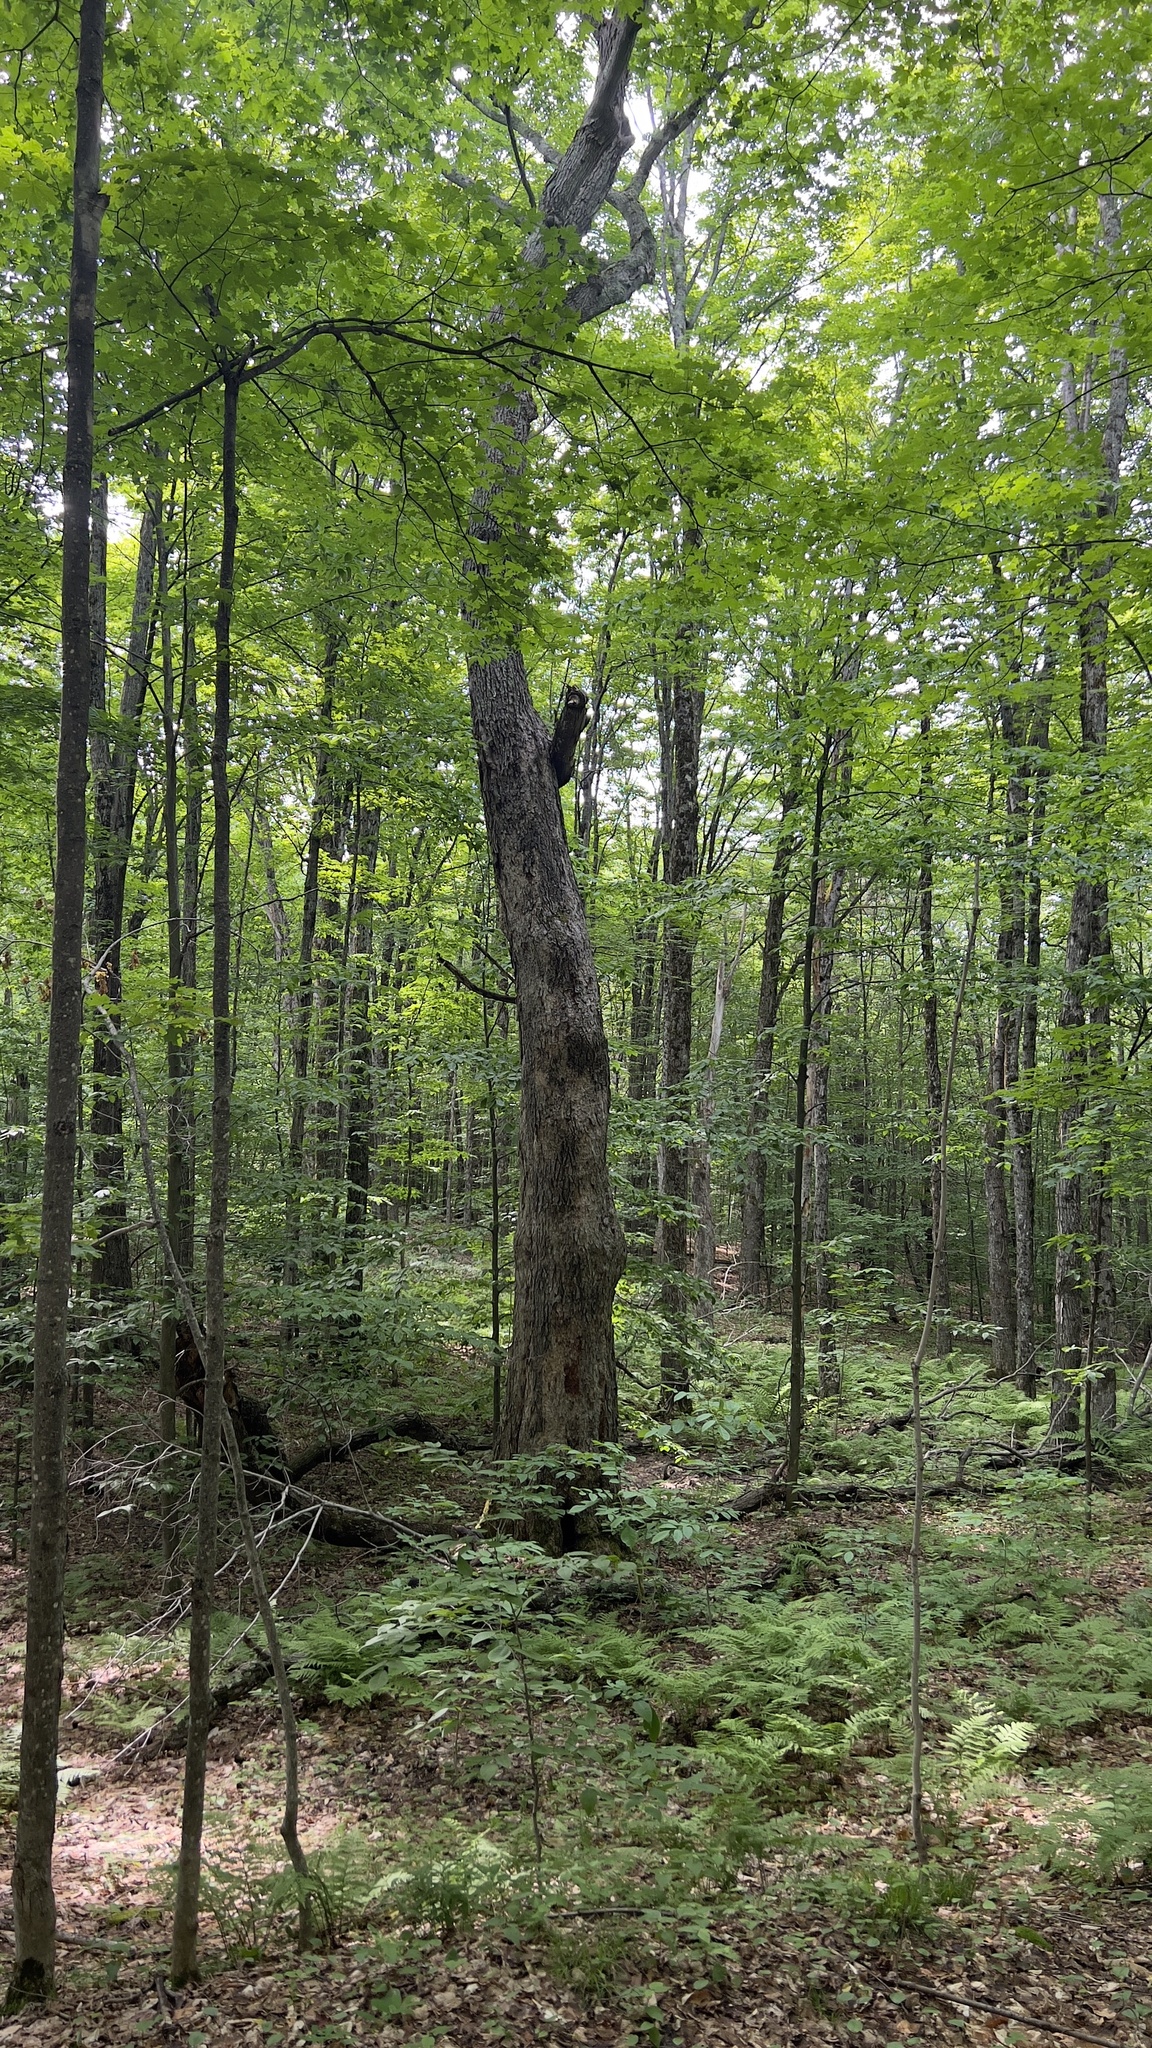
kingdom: Plantae
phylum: Tracheophyta
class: Magnoliopsida
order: Sapindales
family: Sapindaceae
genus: Acer
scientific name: Acer saccharum
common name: Sugar maple
